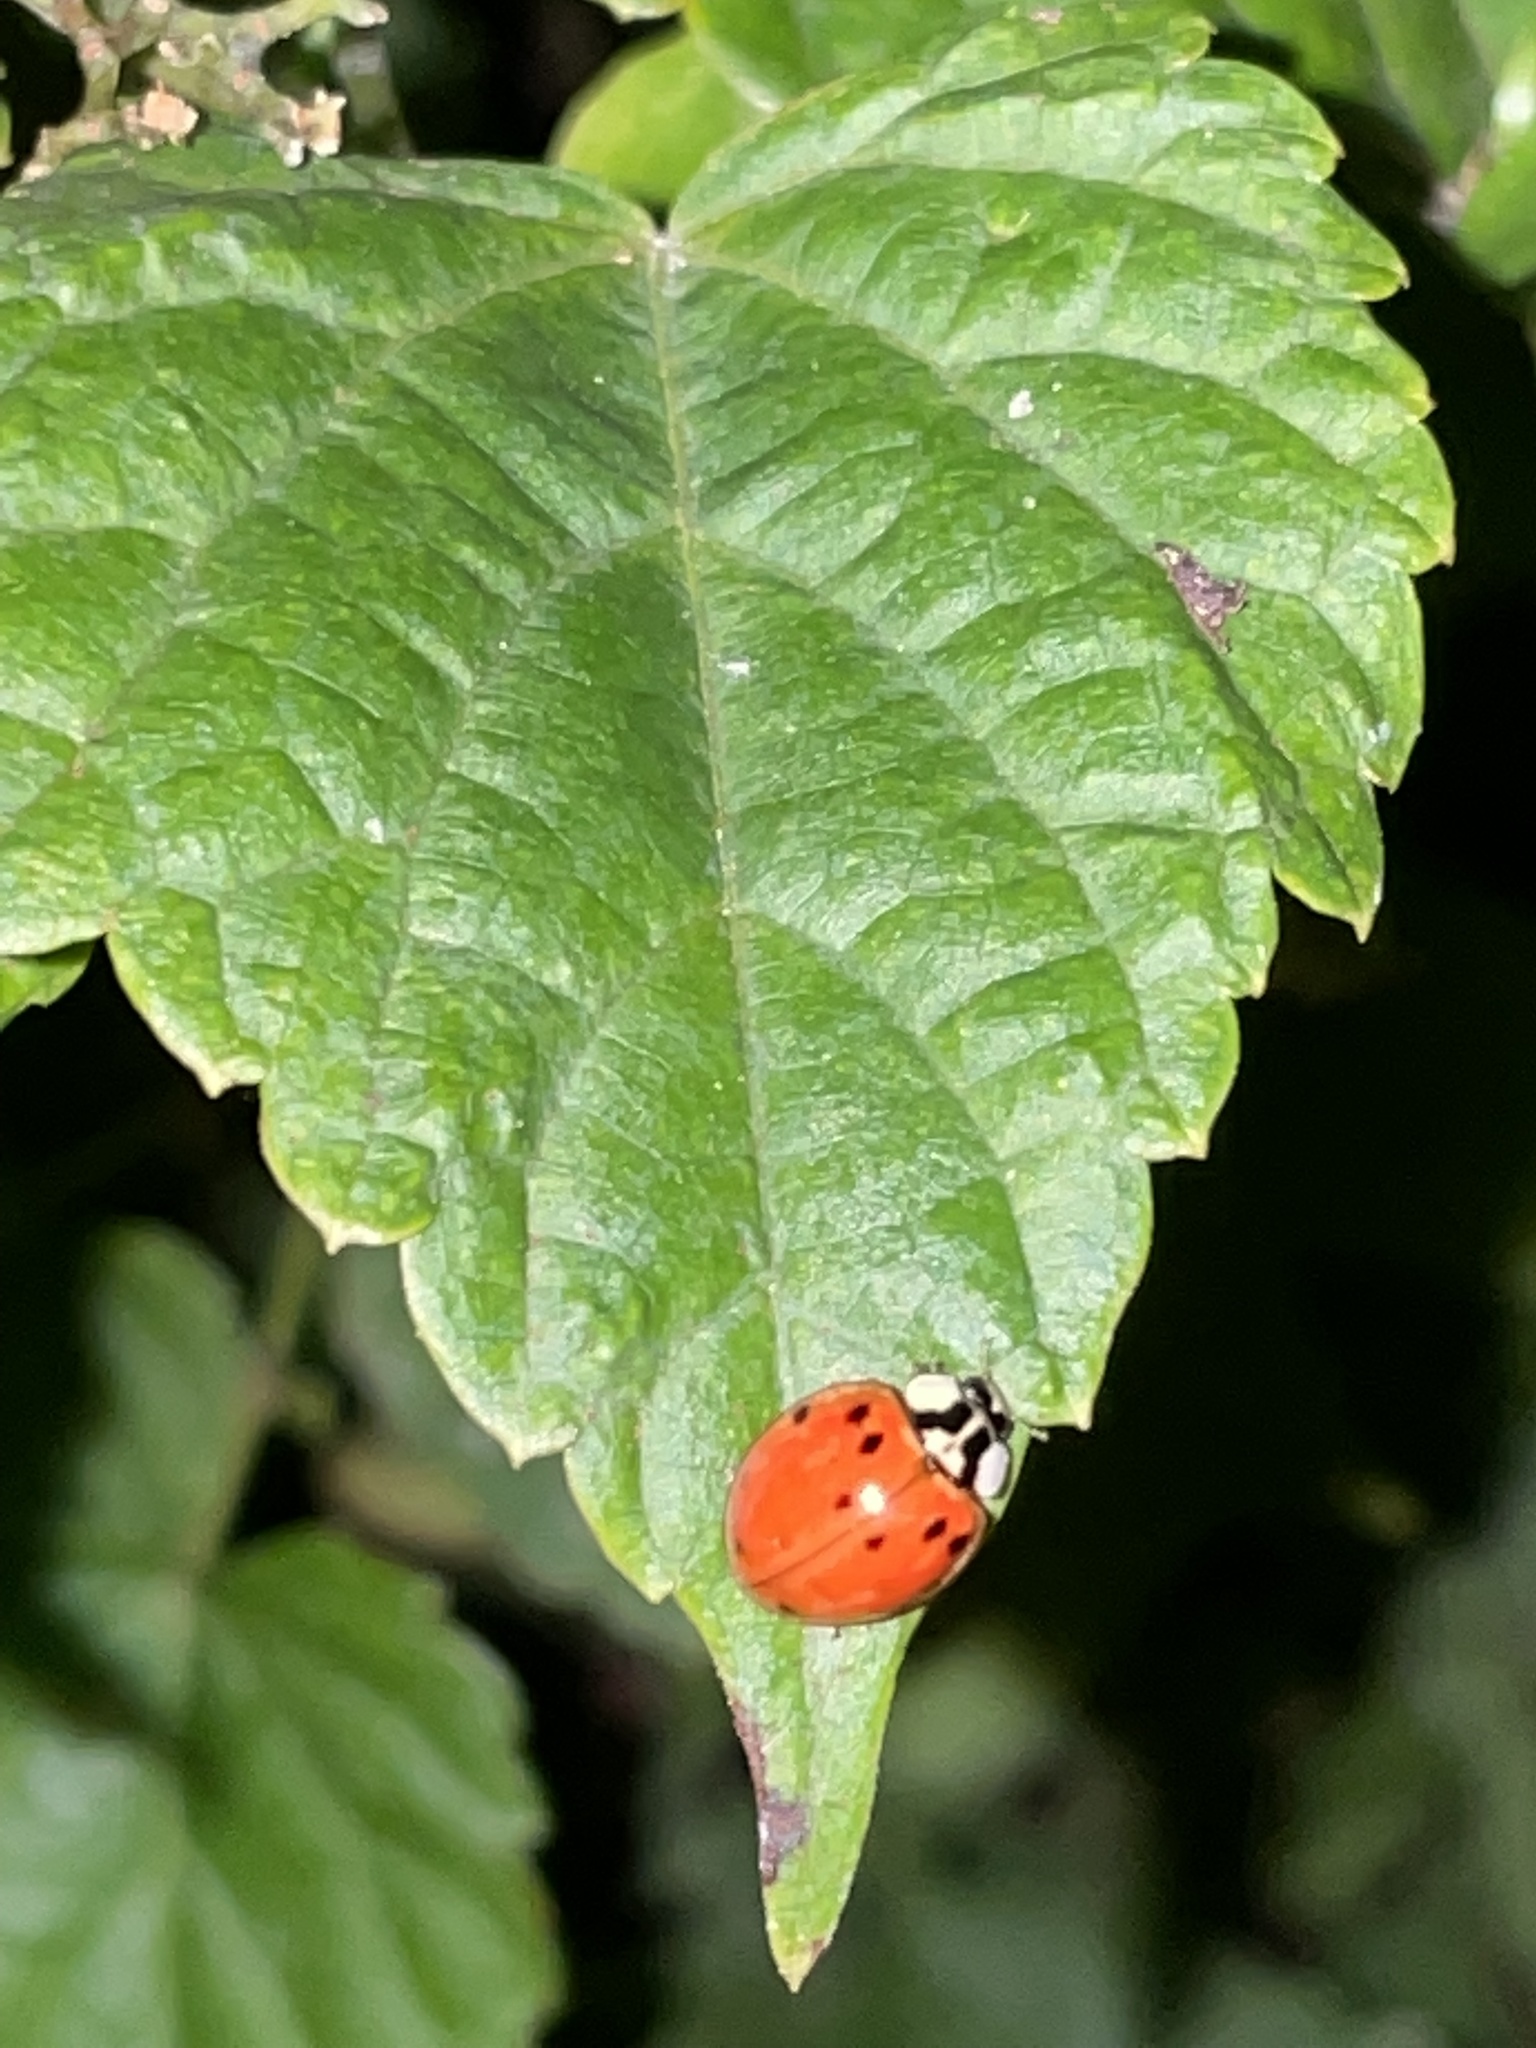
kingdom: Animalia
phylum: Arthropoda
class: Insecta
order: Coleoptera
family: Coccinellidae
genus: Harmonia
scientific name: Harmonia axyridis
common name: Harlequin ladybird
